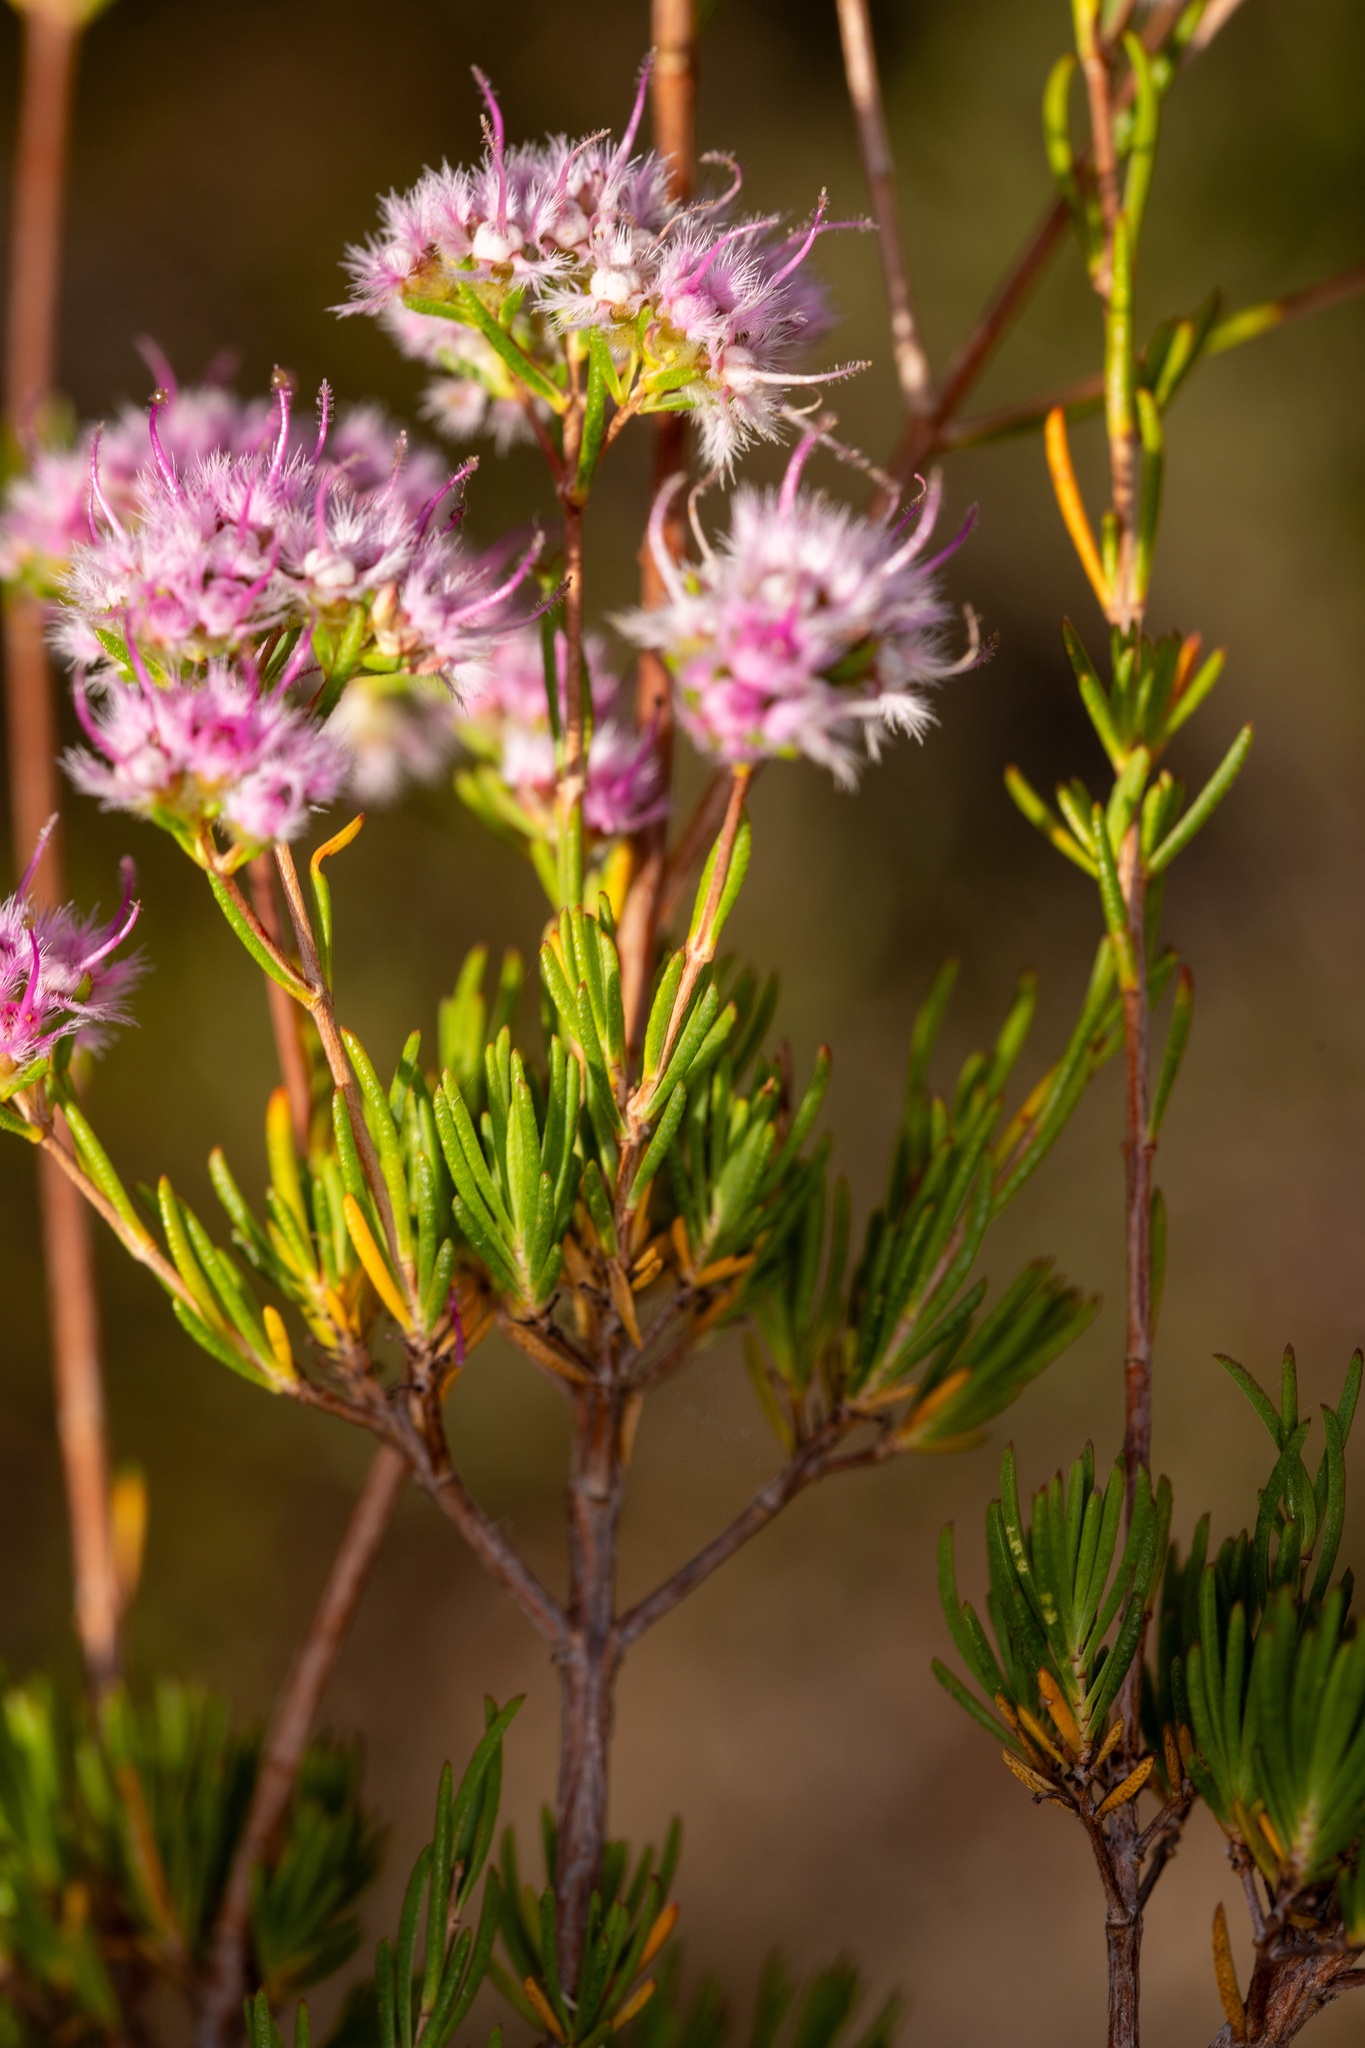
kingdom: Plantae
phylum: Tracheophyta
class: Magnoliopsida
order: Myrtales
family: Myrtaceae
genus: Verticordia
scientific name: Verticordia densiflora
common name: Compact feather-flower
